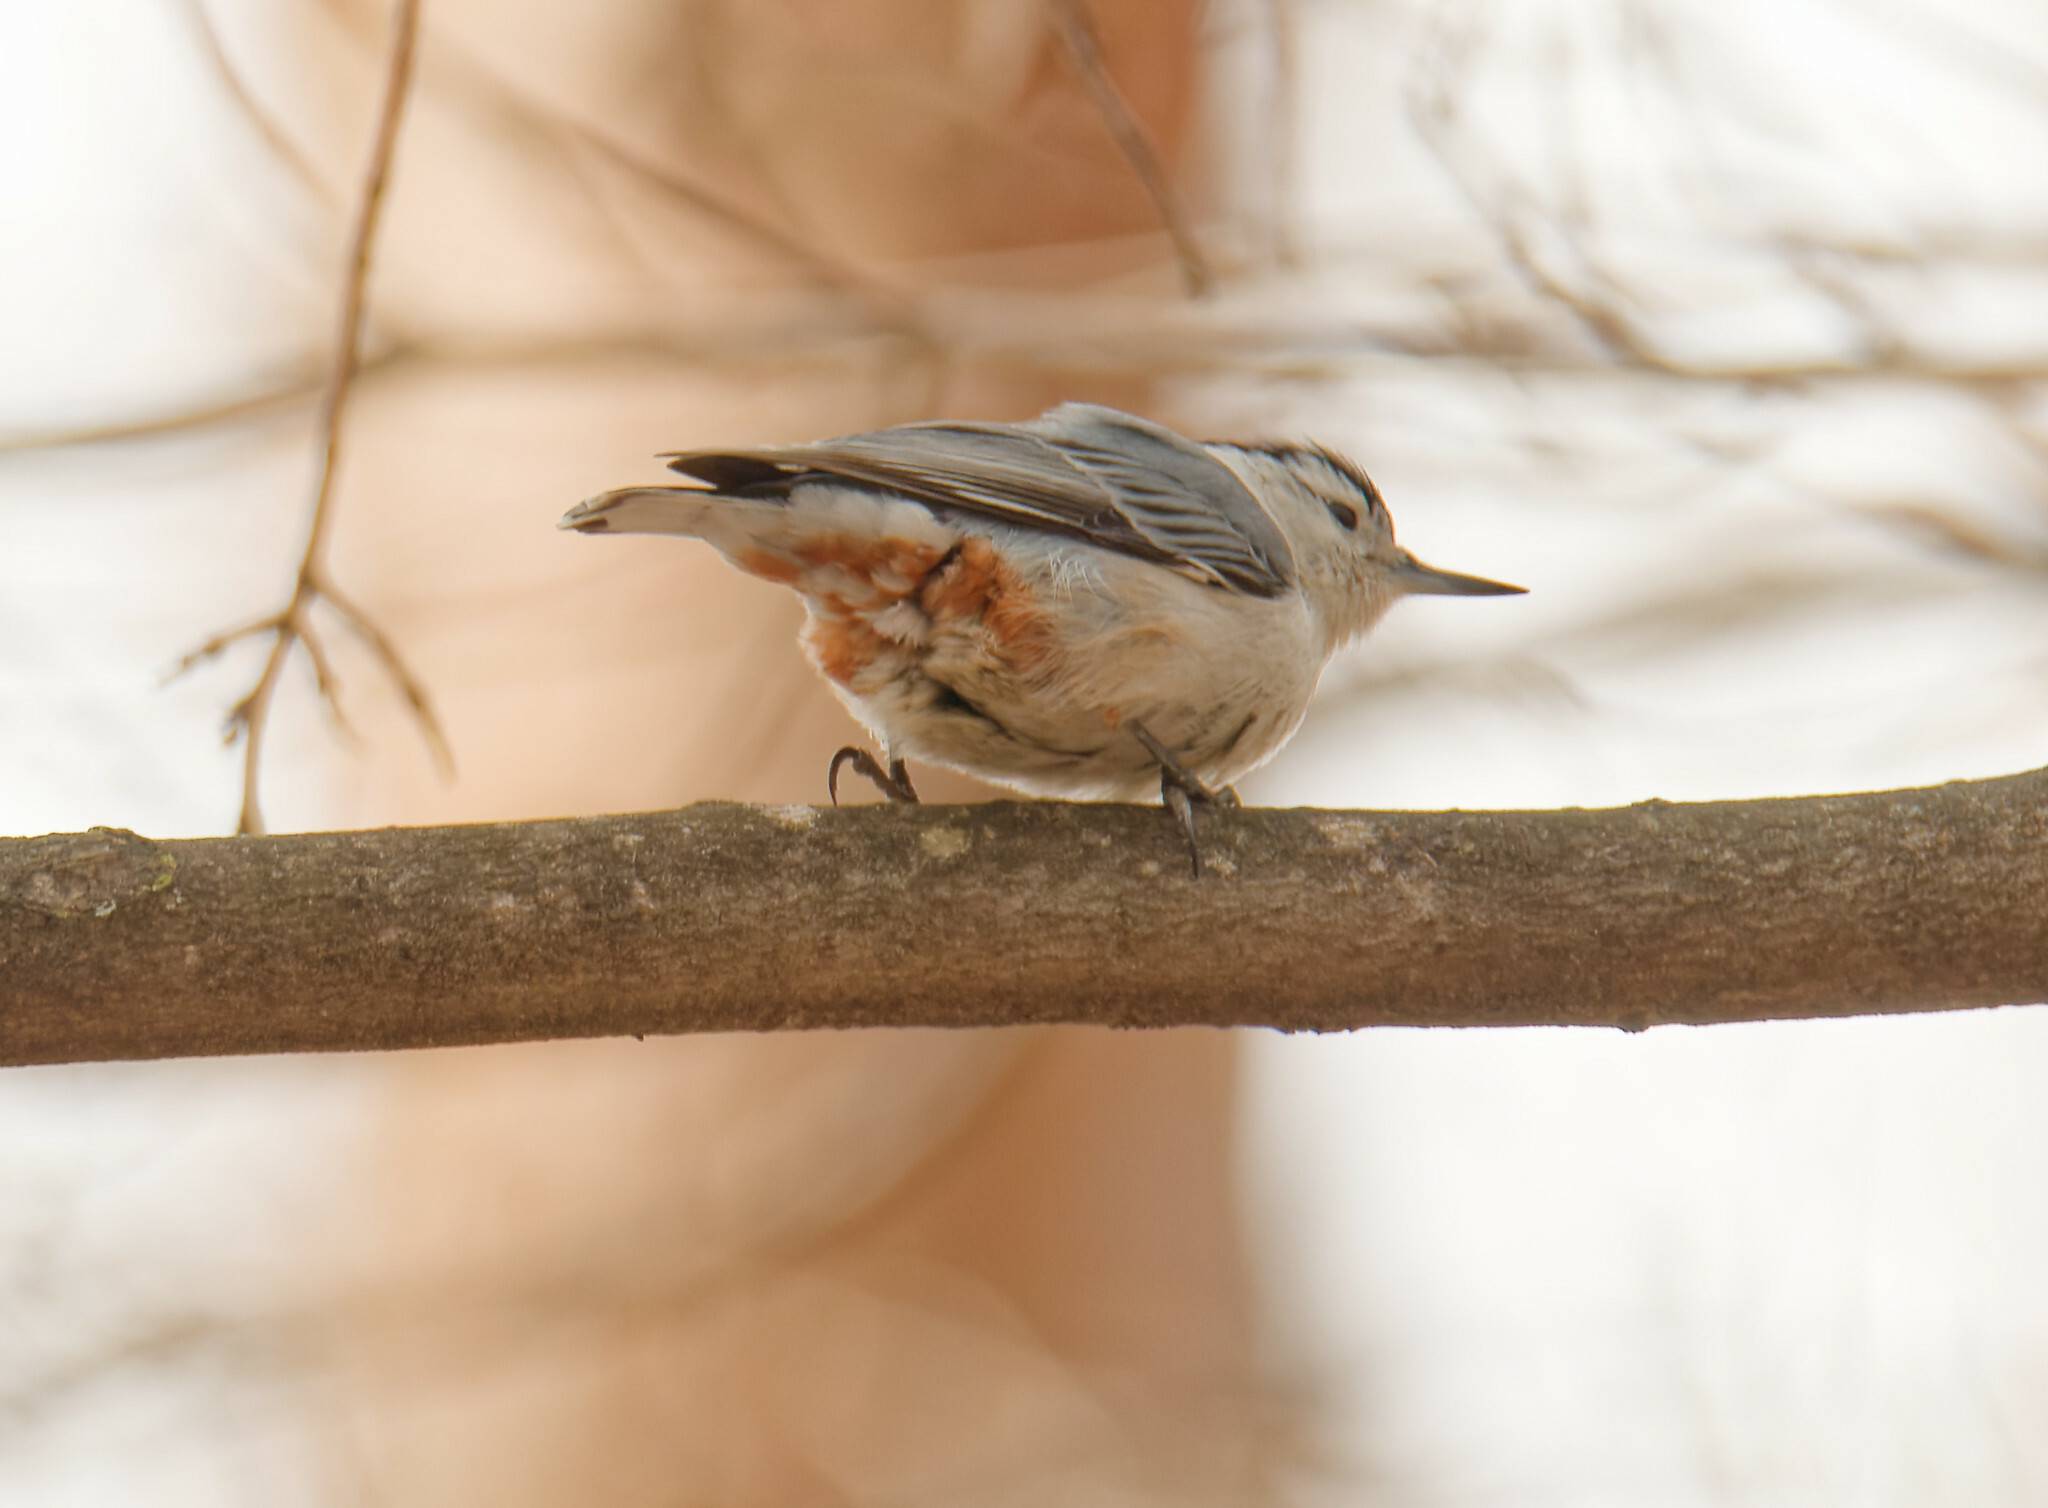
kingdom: Animalia
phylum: Chordata
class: Aves
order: Passeriformes
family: Sittidae
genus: Sitta
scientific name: Sitta carolinensis
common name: White-breasted nuthatch
